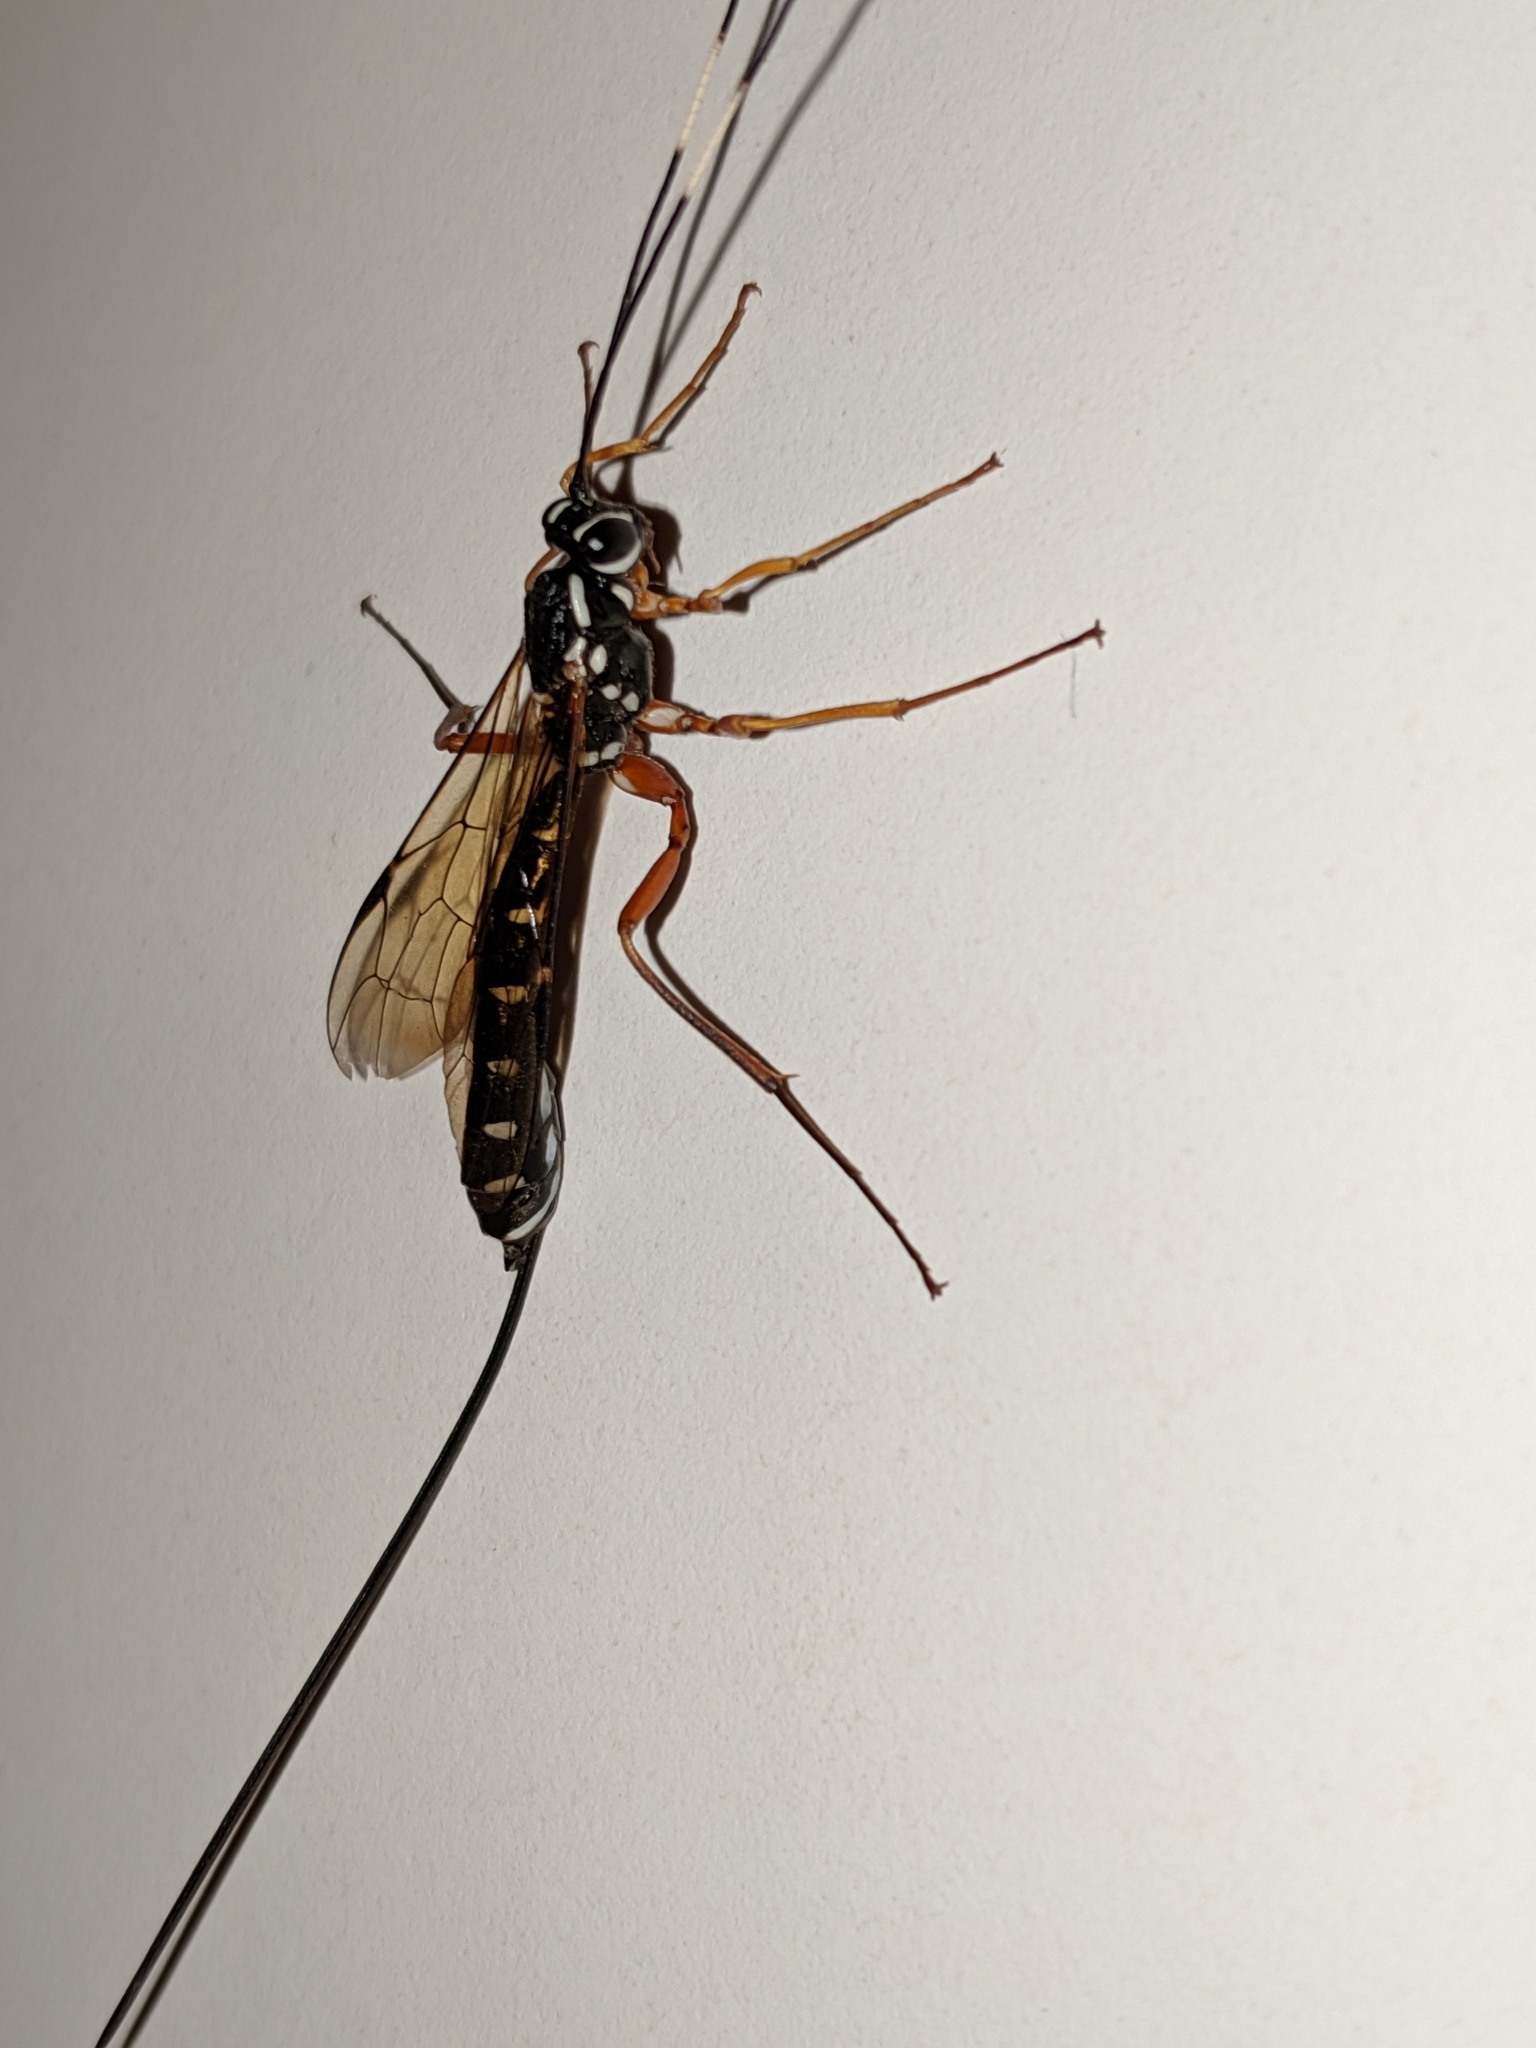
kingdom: Animalia
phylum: Arthropoda
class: Insecta
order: Hymenoptera
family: Ichneumonidae
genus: Rhyssa
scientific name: Rhyssa lineolata
